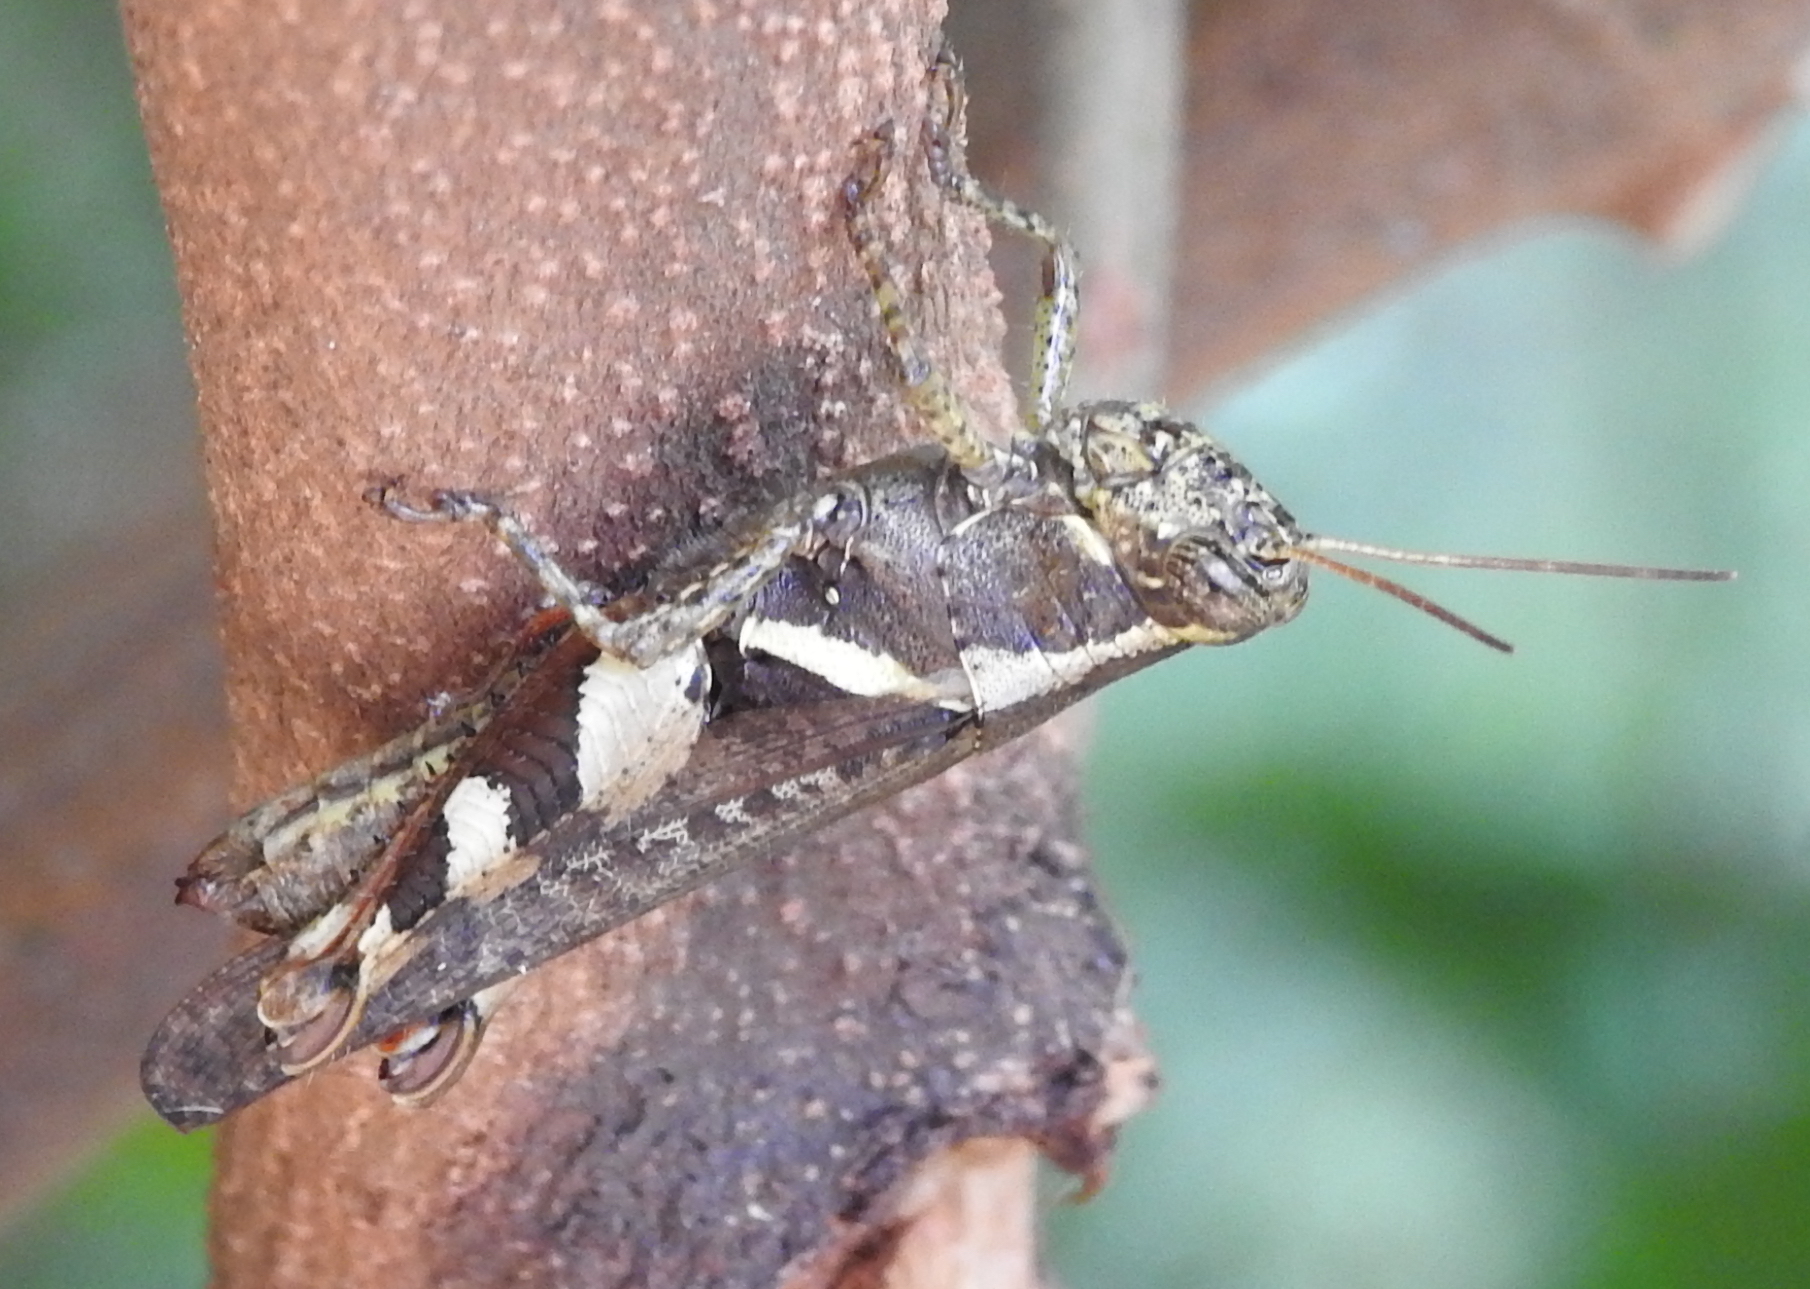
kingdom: Animalia
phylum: Arthropoda
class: Insecta
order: Orthoptera
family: Acrididae
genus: Xenocatantops
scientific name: Xenocatantops humile
